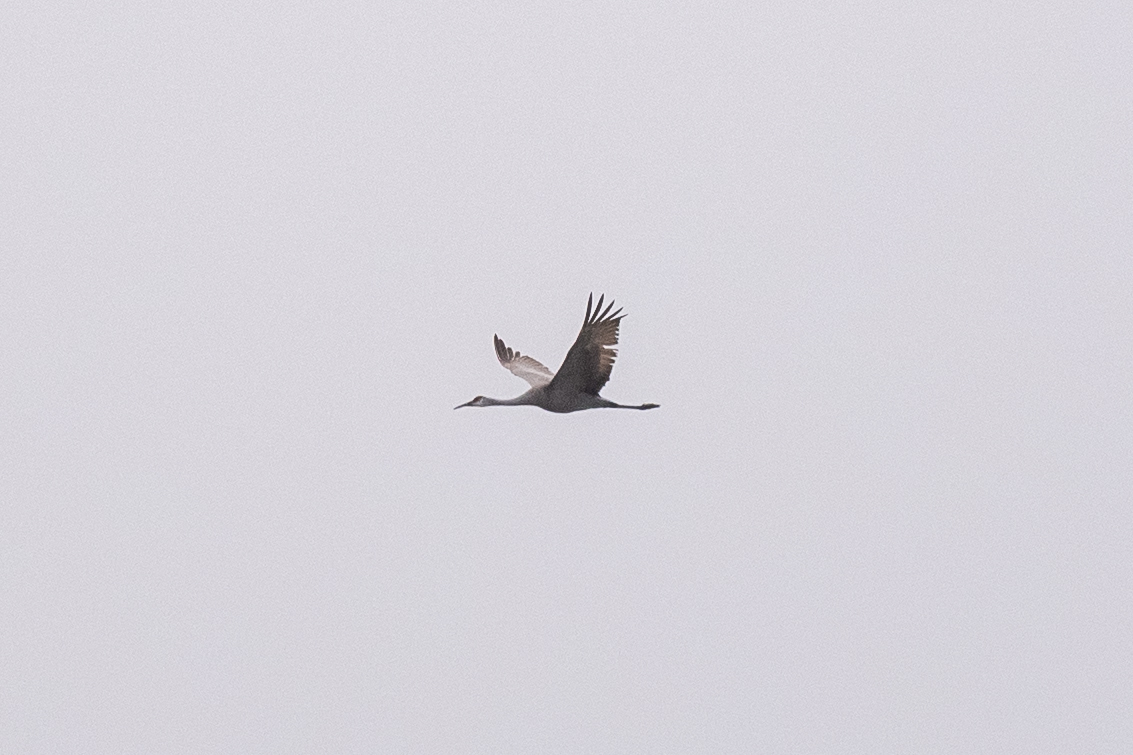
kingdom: Animalia
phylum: Chordata
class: Aves
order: Gruiformes
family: Gruidae
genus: Grus
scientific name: Grus canadensis
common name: Sandhill crane
